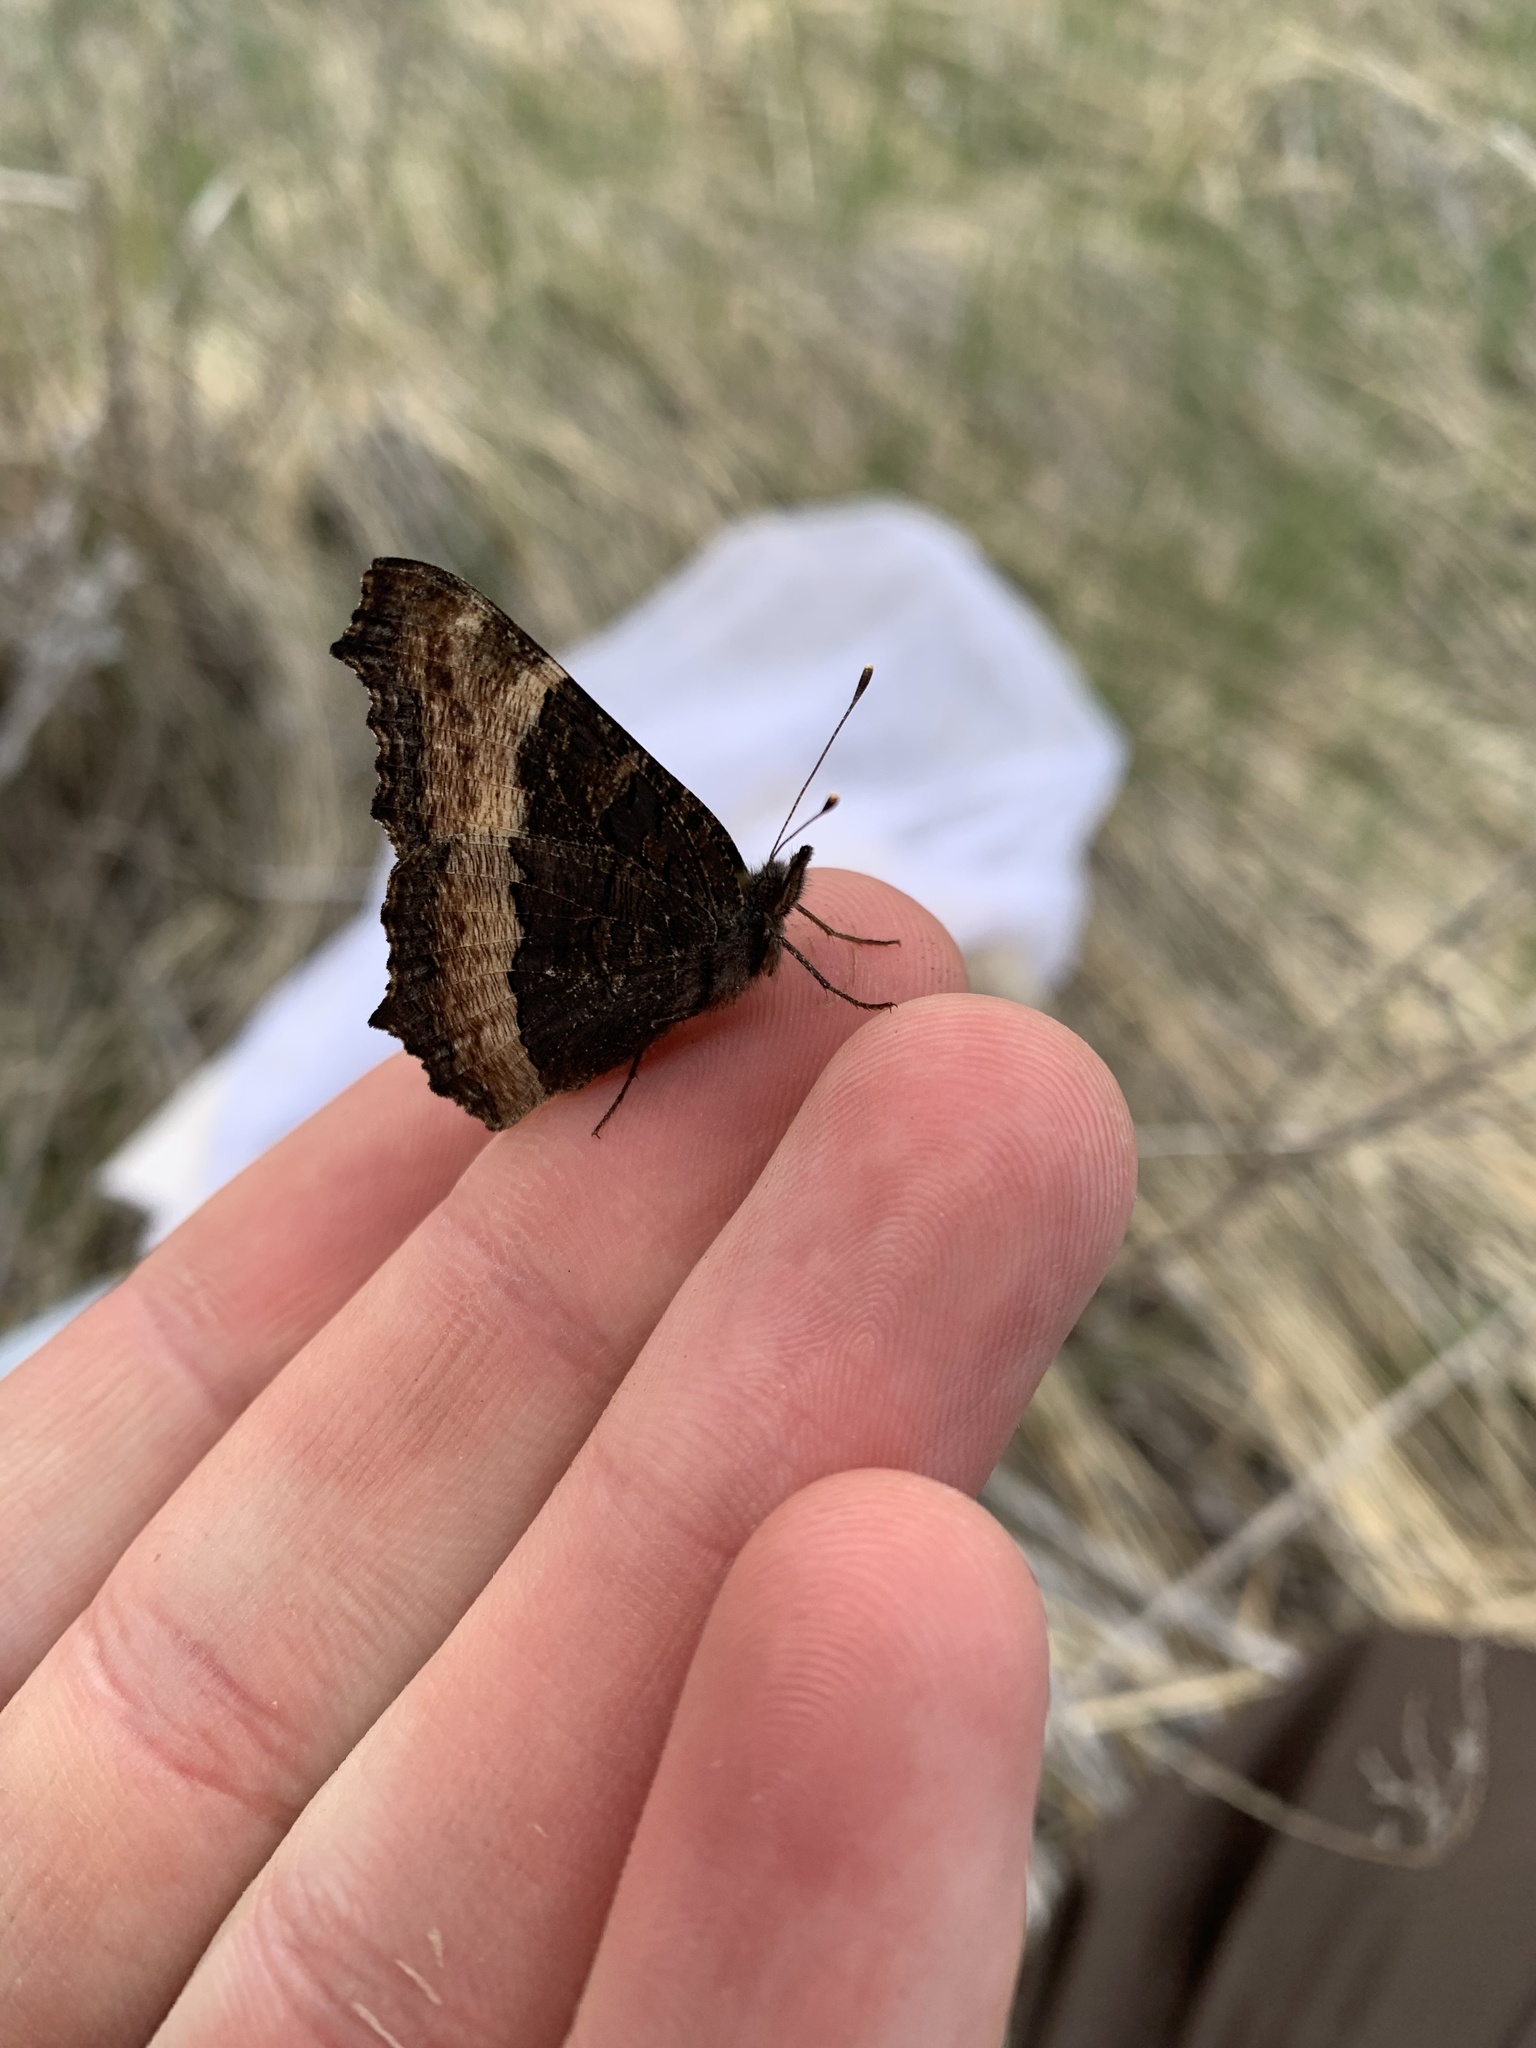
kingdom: Animalia
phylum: Arthropoda
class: Insecta
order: Lepidoptera
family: Nymphalidae
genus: Aglais
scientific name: Aglais milberti
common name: Milbert's tortoiseshell
